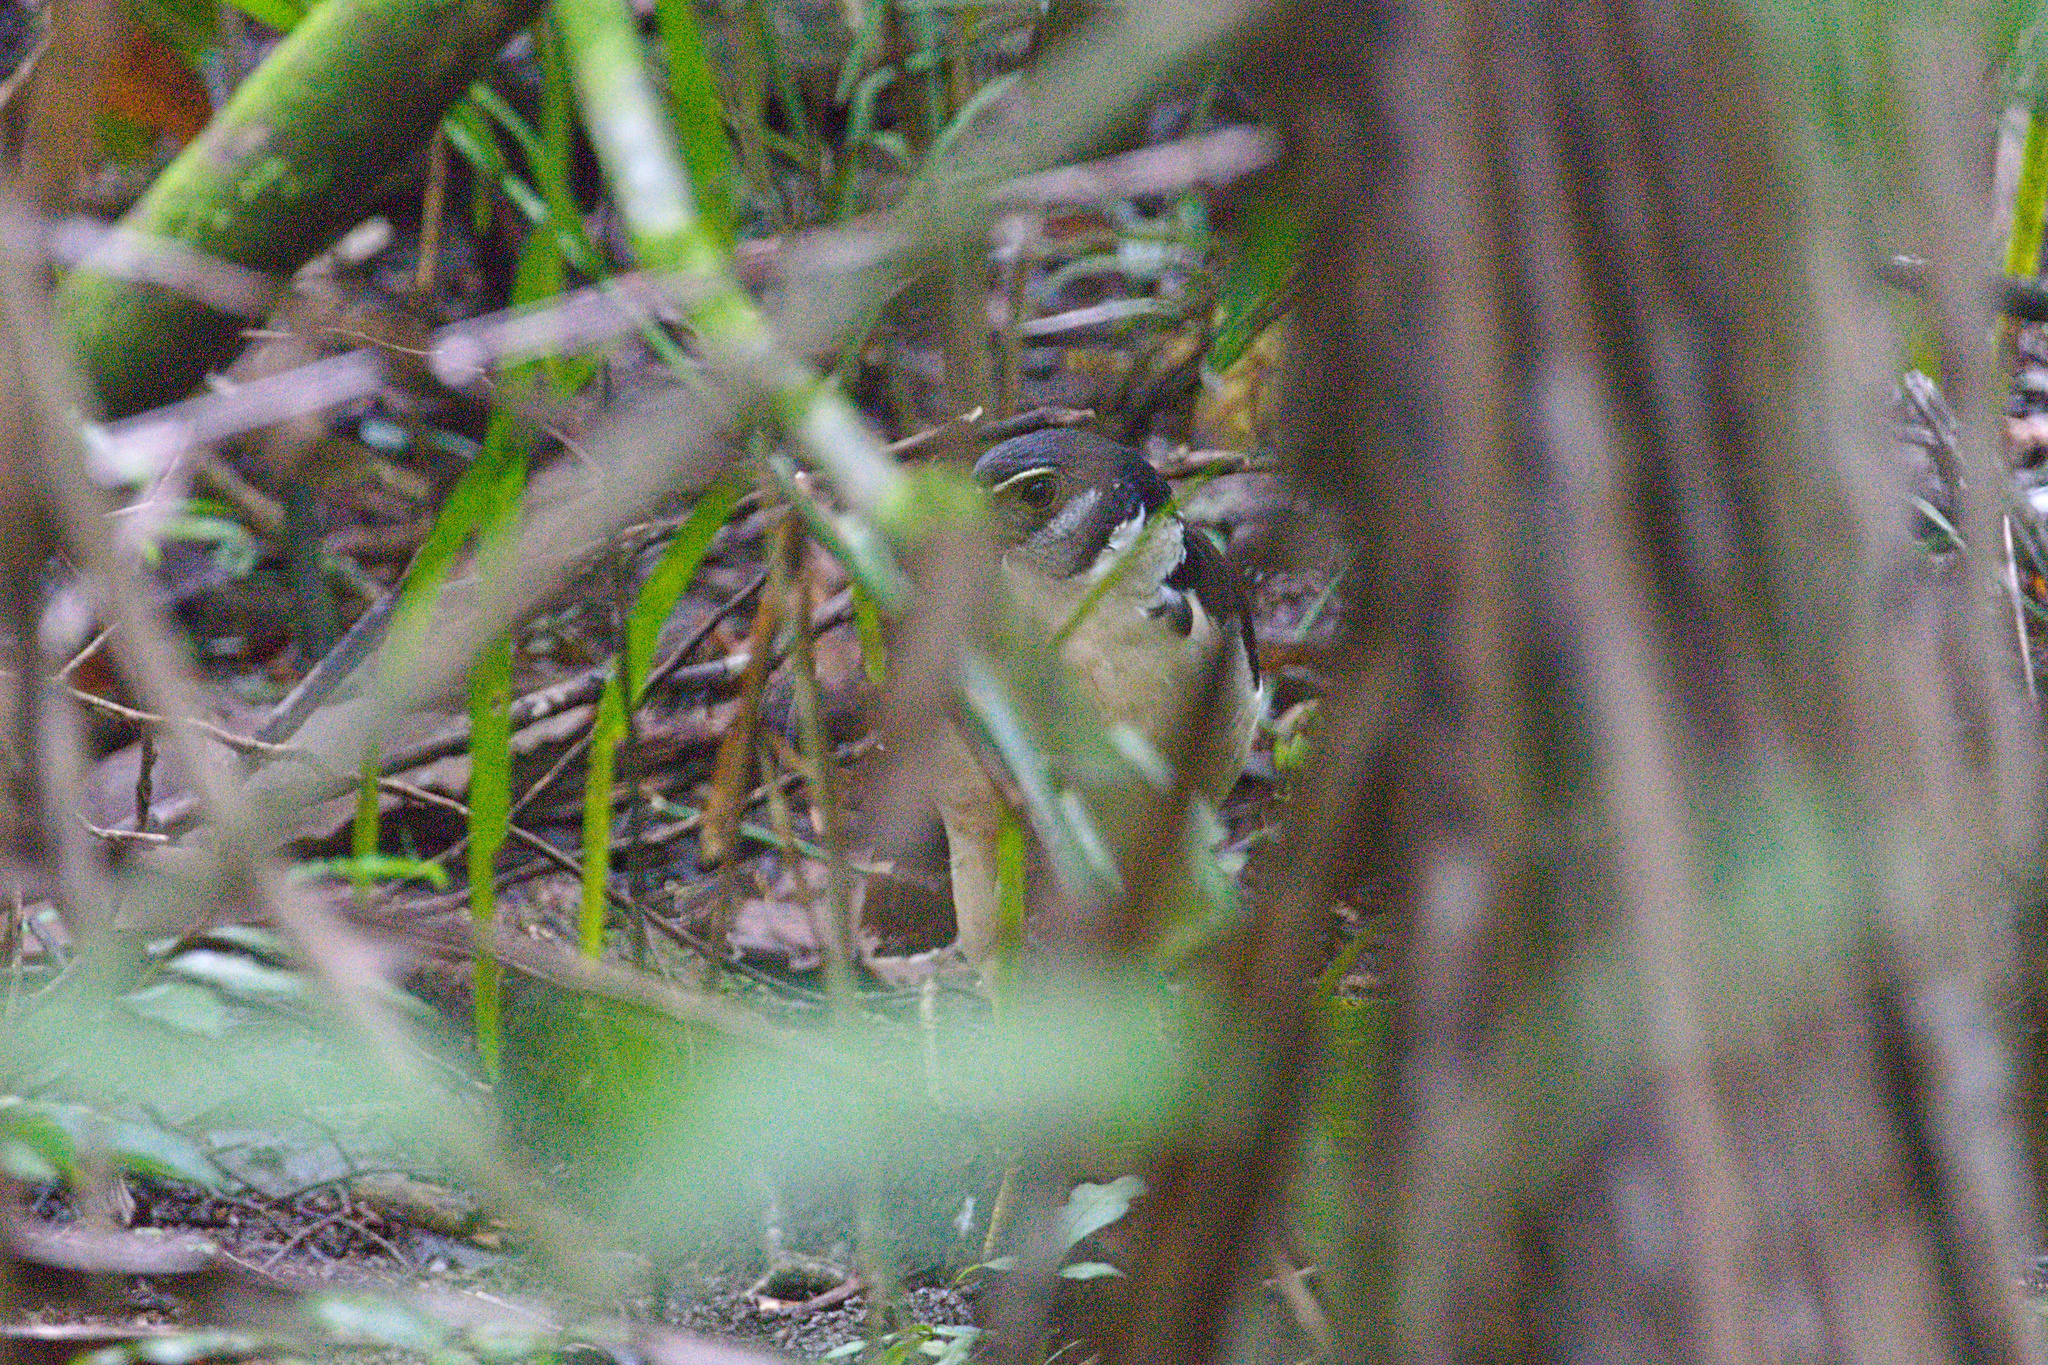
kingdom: Animalia
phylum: Chordata
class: Aves
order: Falconiformes
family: Falconidae
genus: Micrastur
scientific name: Micrastur semitorquatus
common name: Collared forest-falcon
